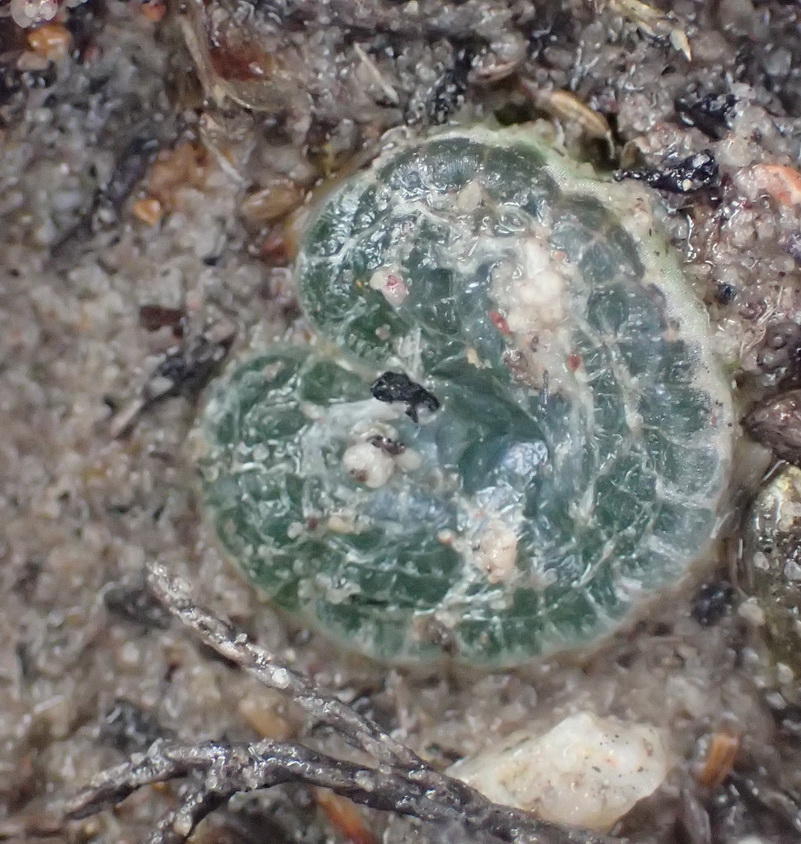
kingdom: Plantae
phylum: Tracheophyta
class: Liliopsida
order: Asparagales
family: Asphodelaceae
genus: Bulbine
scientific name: Bulbine mesembryanthoides
